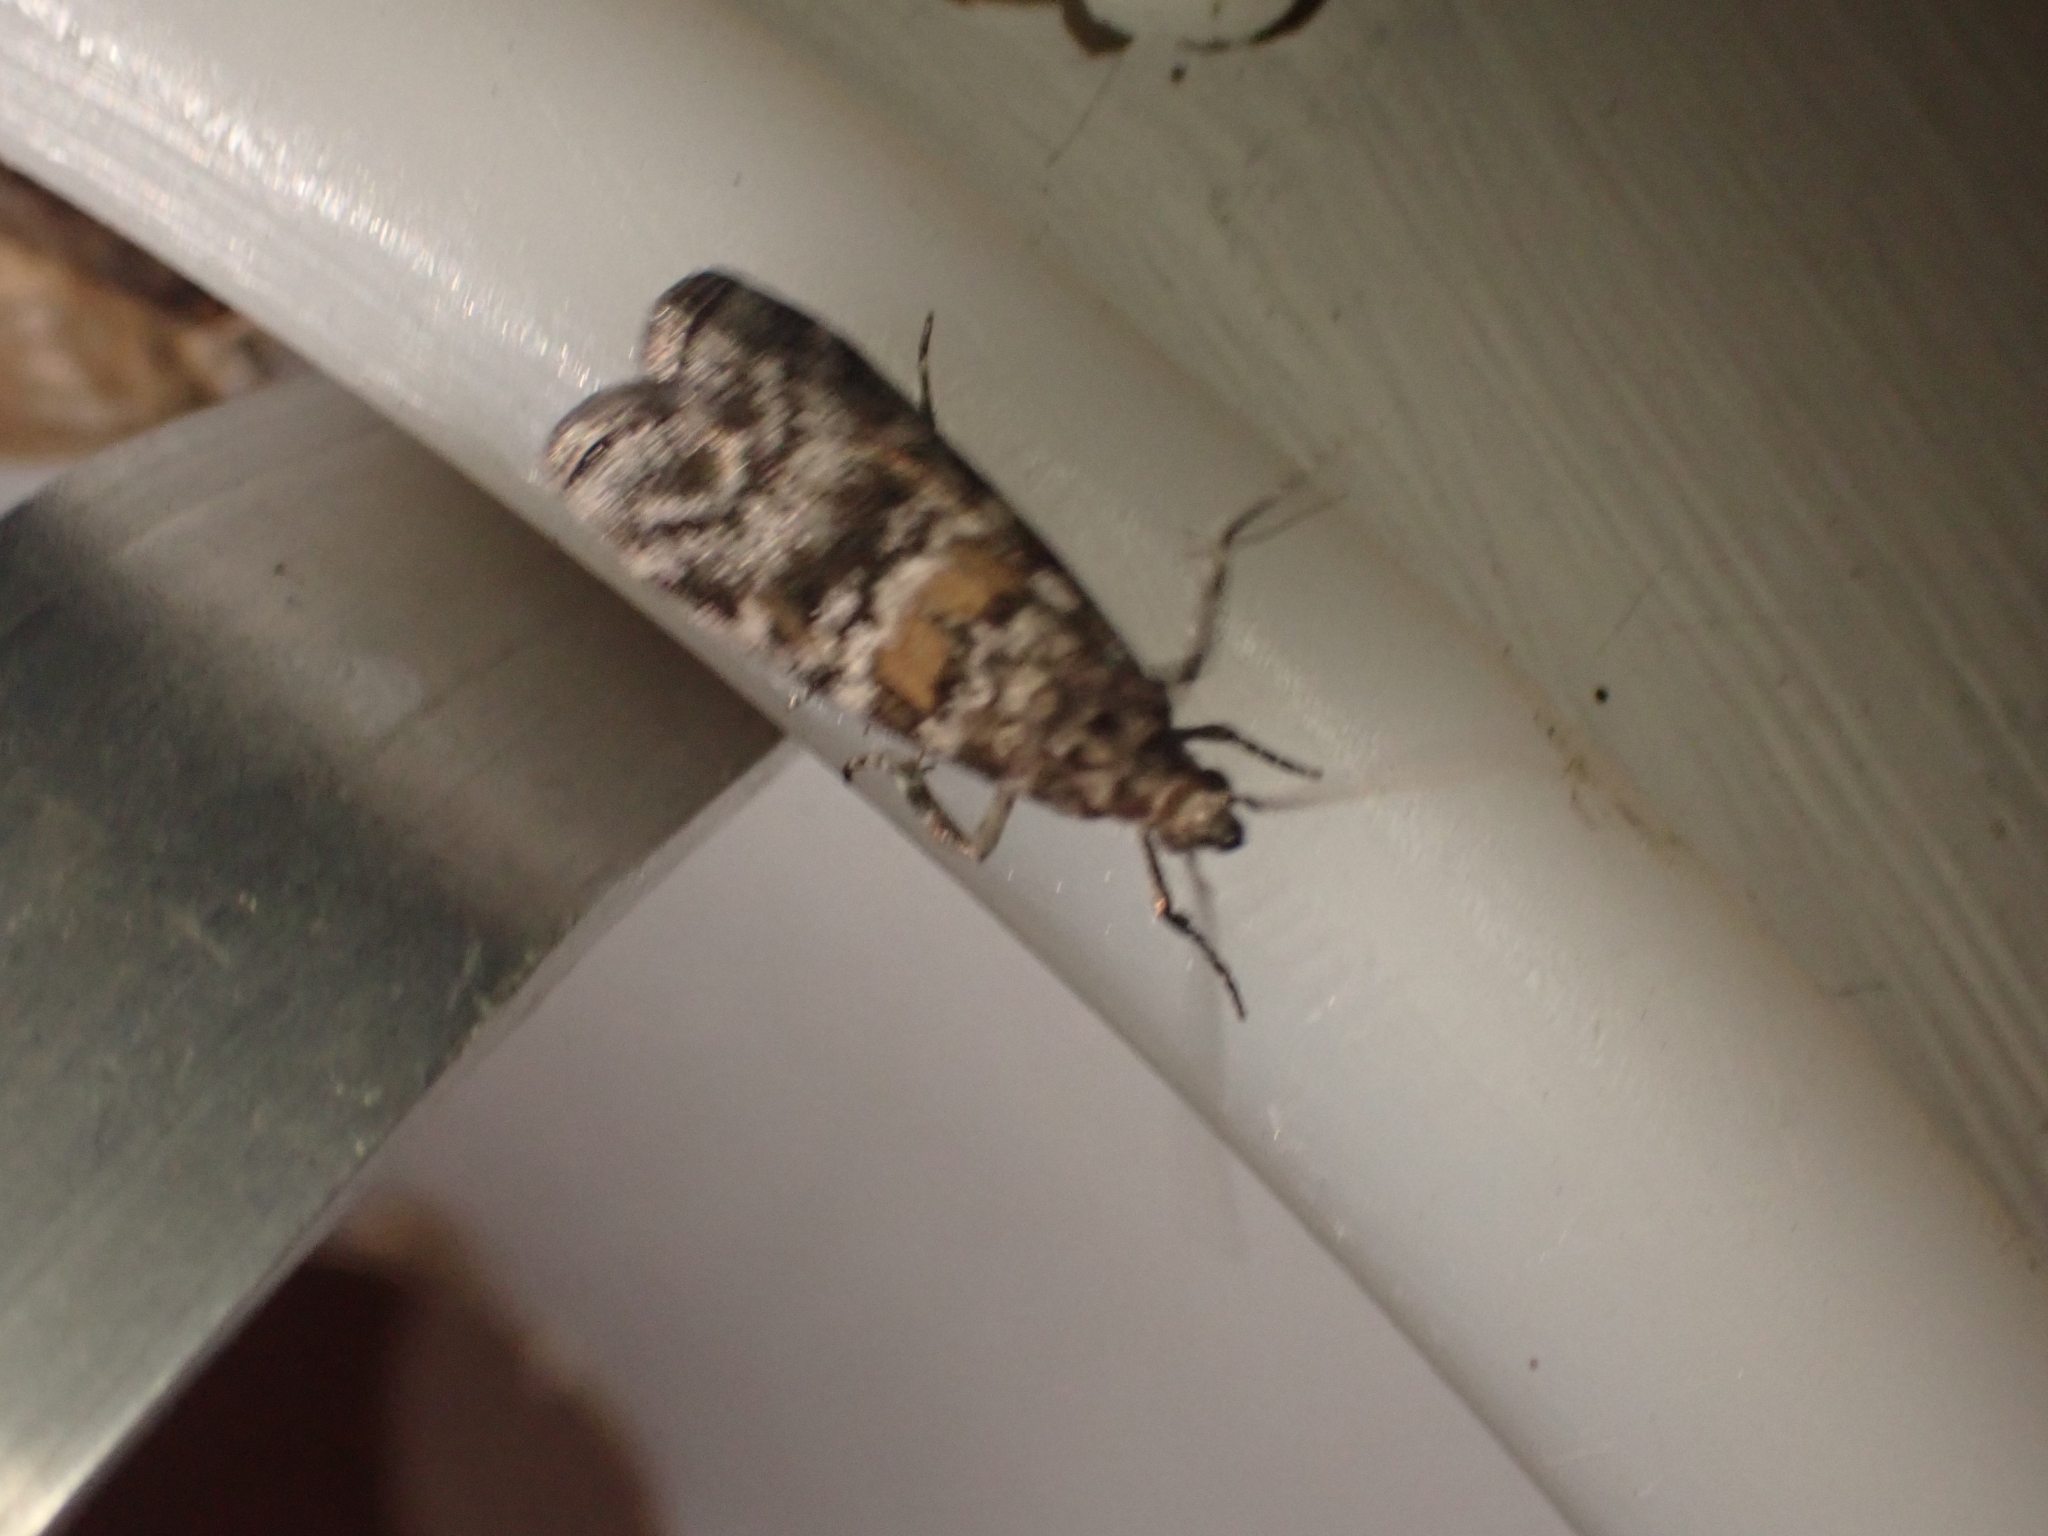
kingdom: Animalia
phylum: Arthropoda
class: Insecta
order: Lepidoptera
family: Pyralidae
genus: Dioryctria
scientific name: Dioryctria abietella
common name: Dark pine knot-horn
